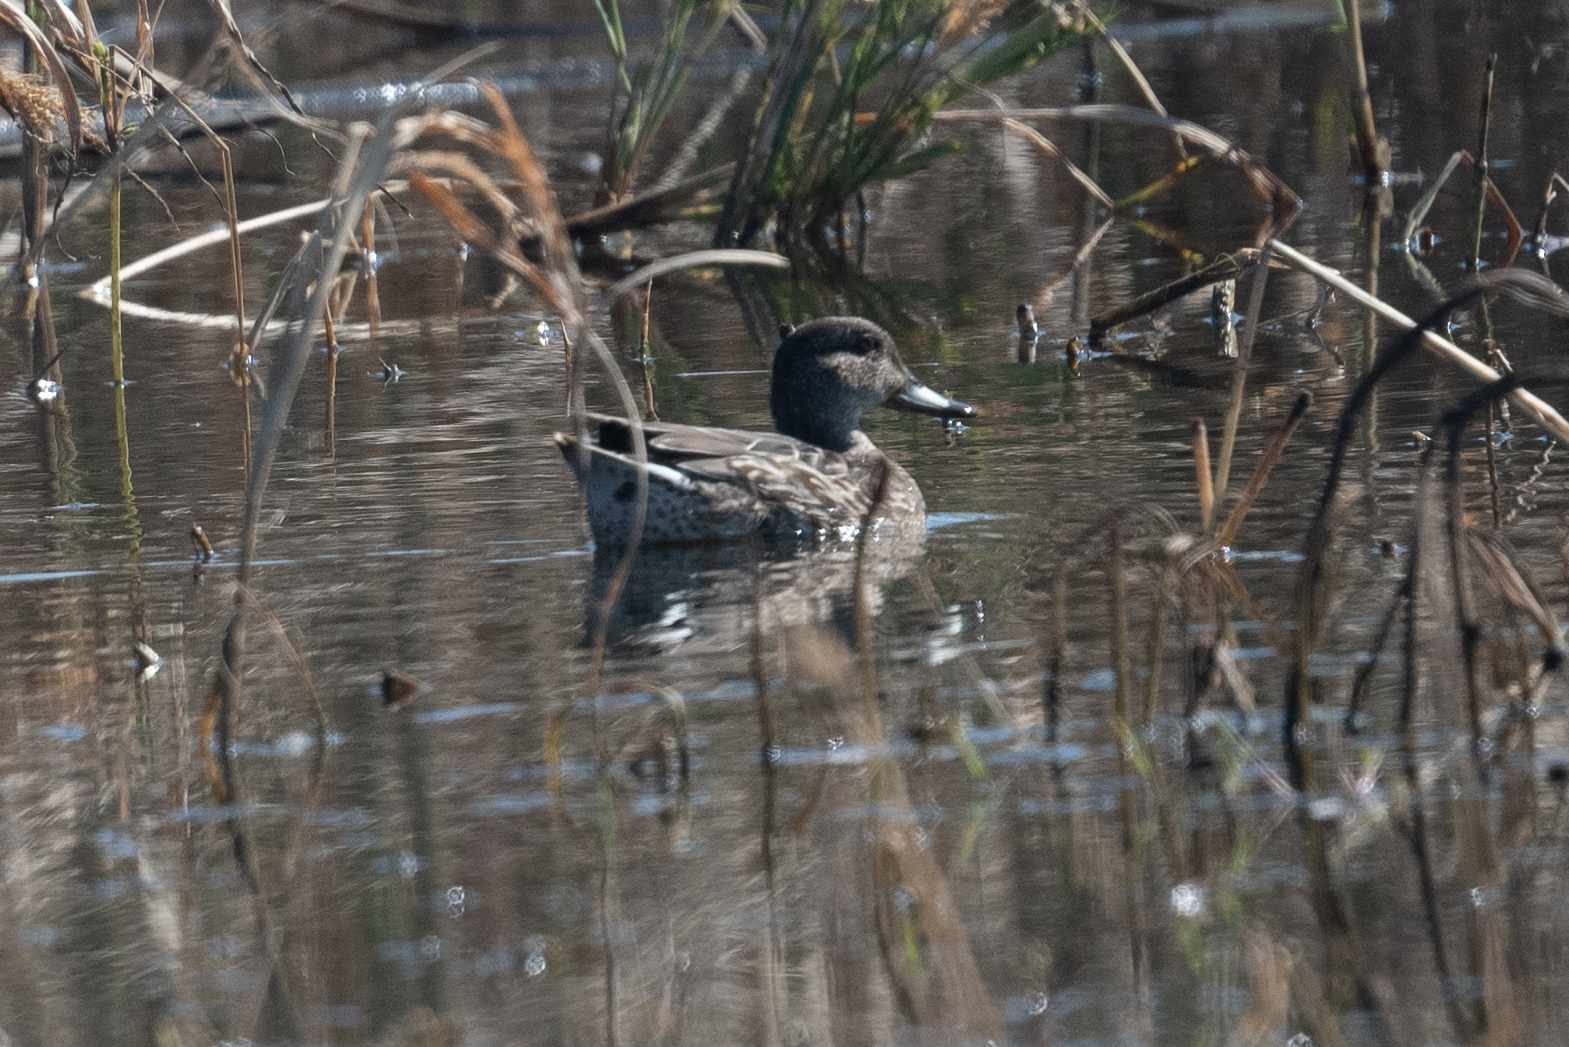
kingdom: Animalia
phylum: Chordata
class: Aves
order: Anseriformes
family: Anatidae
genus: Anas
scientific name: Anas crecca
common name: Eurasian teal
